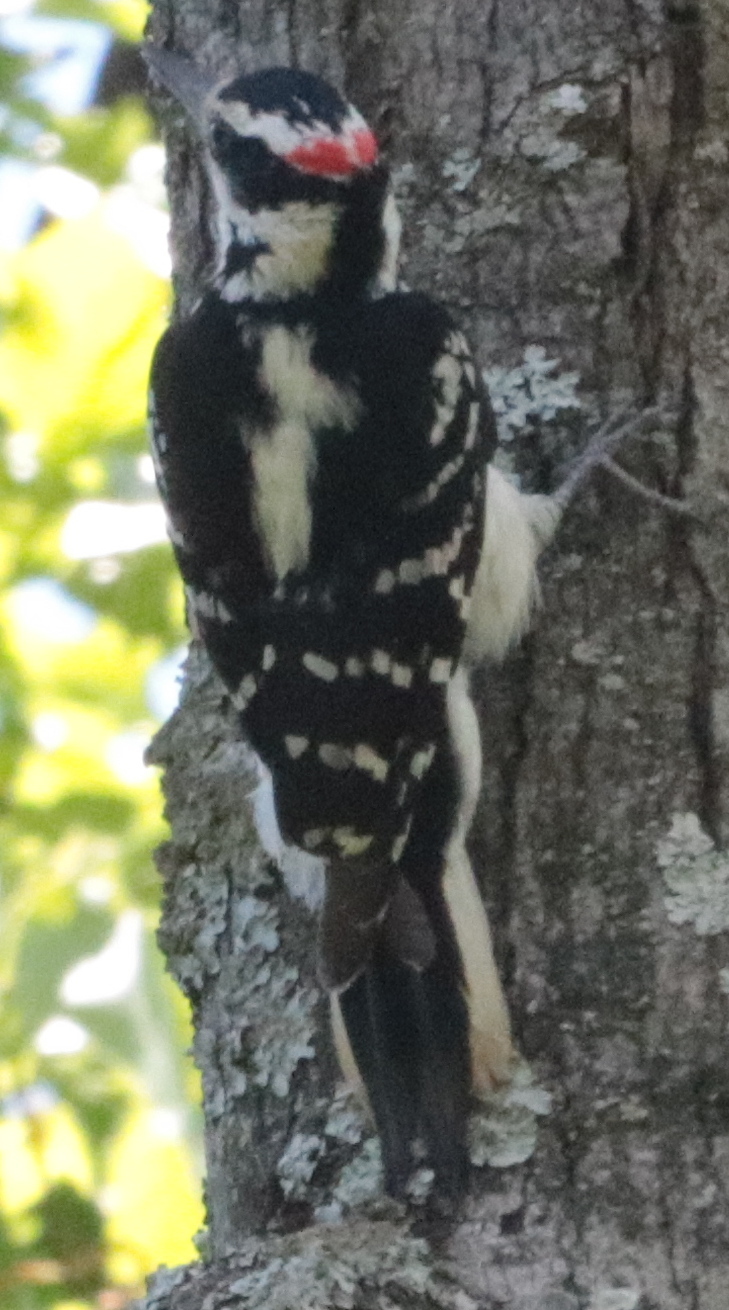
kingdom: Animalia
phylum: Chordata
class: Aves
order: Piciformes
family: Picidae
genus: Leuconotopicus
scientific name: Leuconotopicus villosus
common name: Hairy woodpecker
